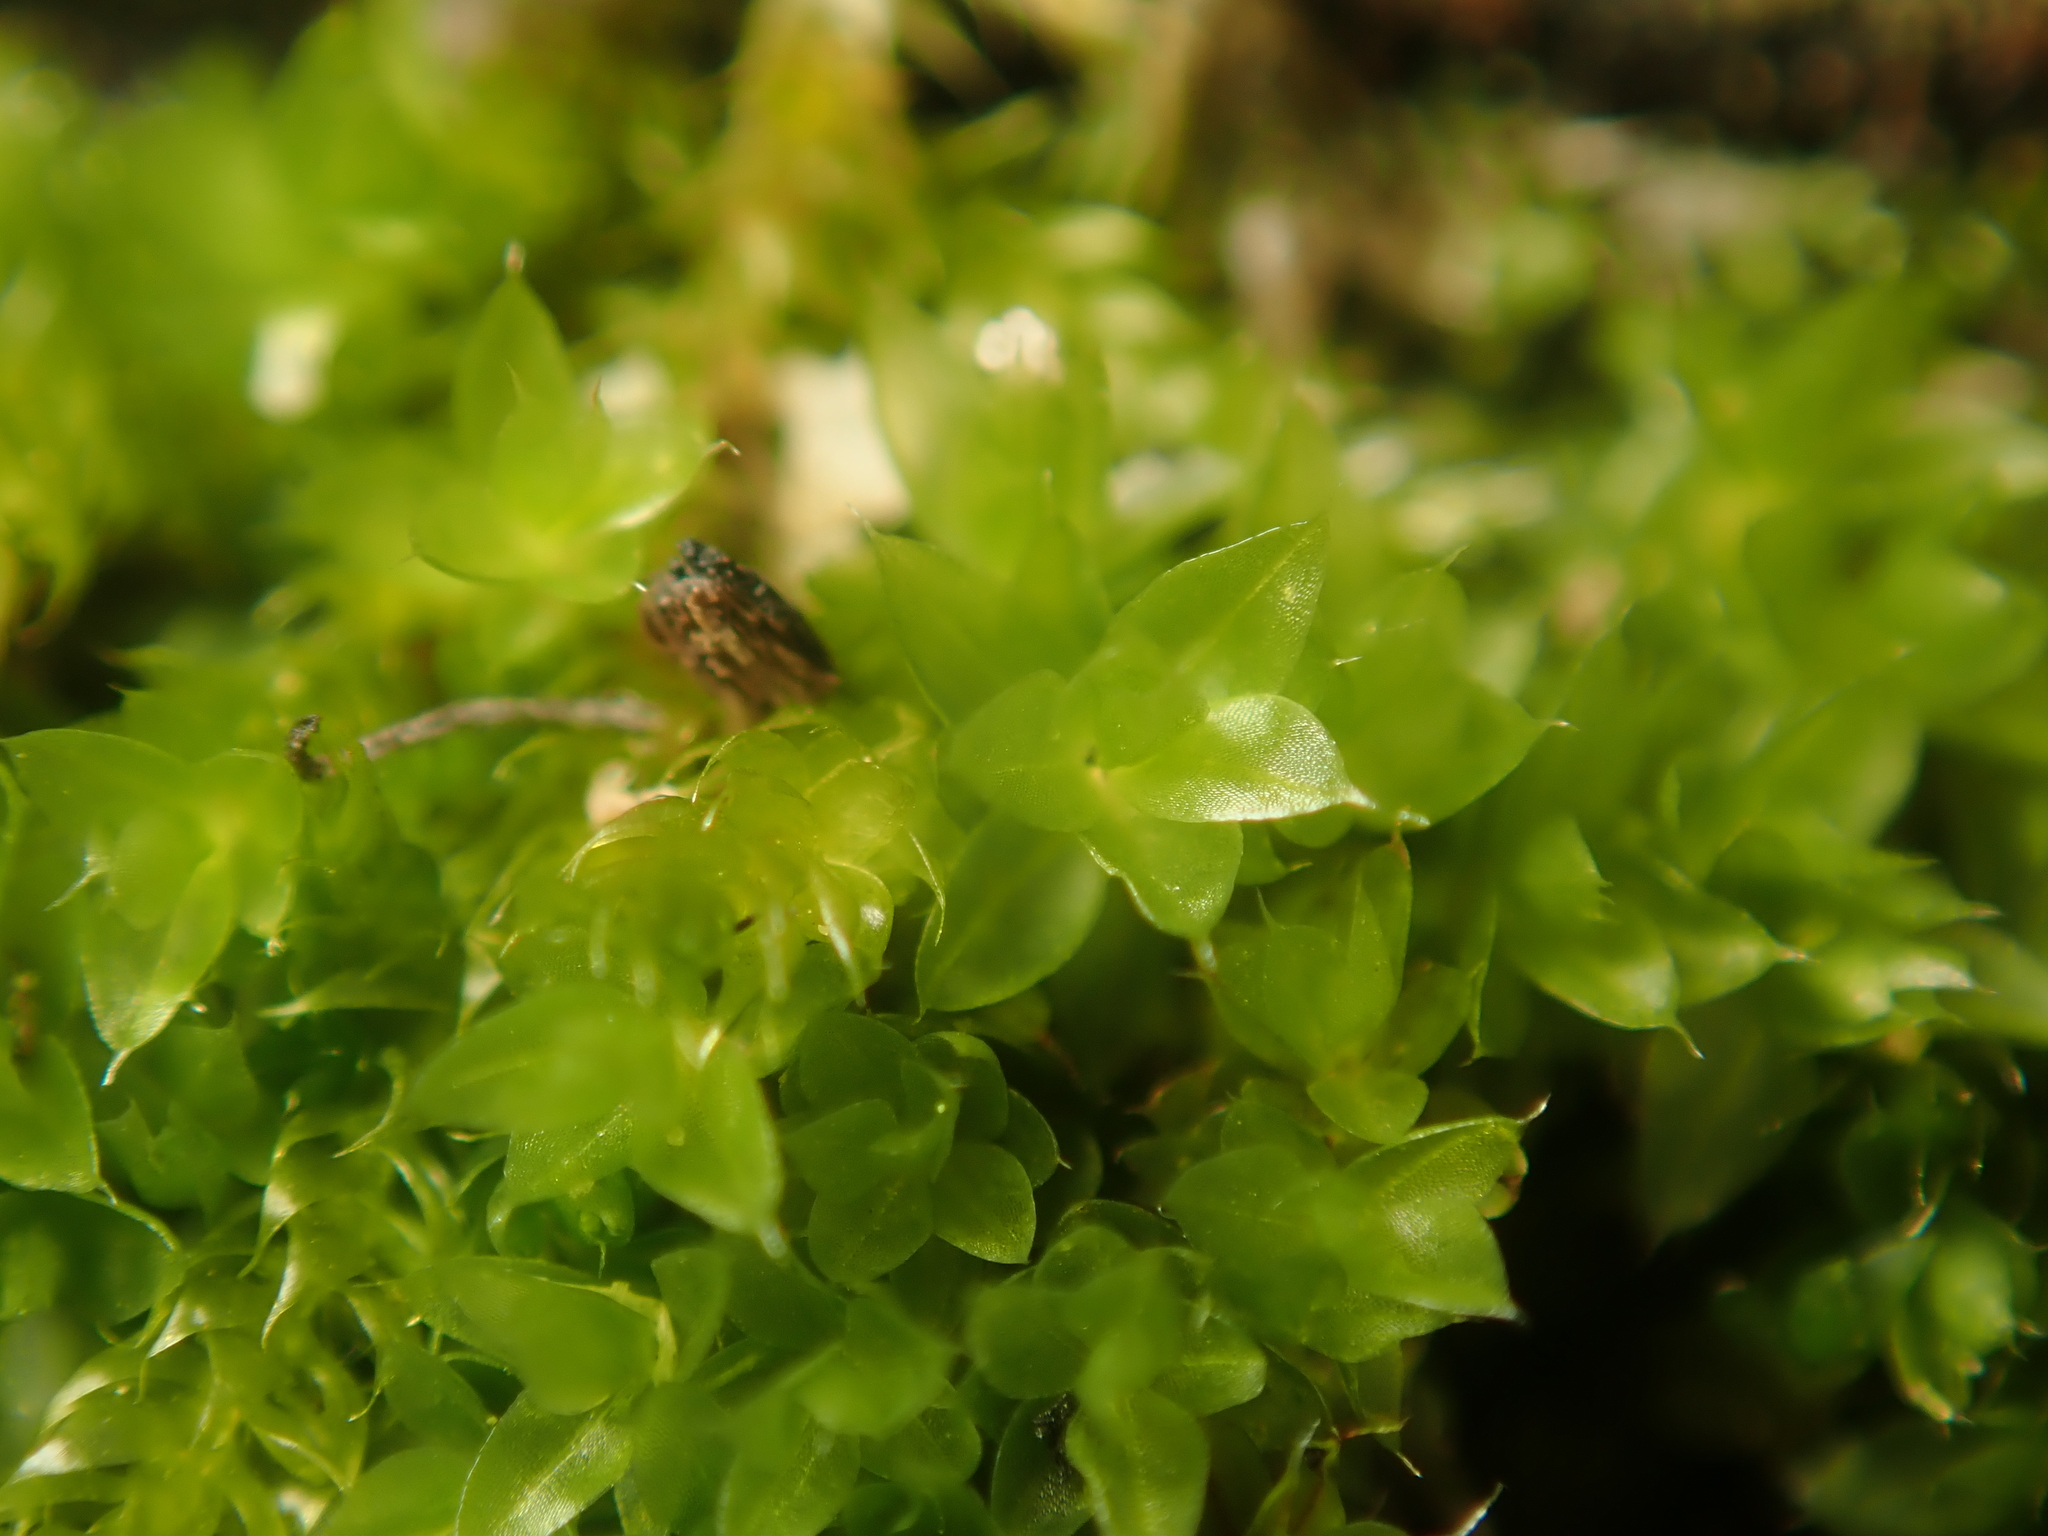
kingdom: Plantae
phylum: Bryophyta
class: Bryopsida
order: Bryales
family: Bryaceae
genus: Rosulabryum
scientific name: Rosulabryum capillare
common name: Capillary thread-moss
